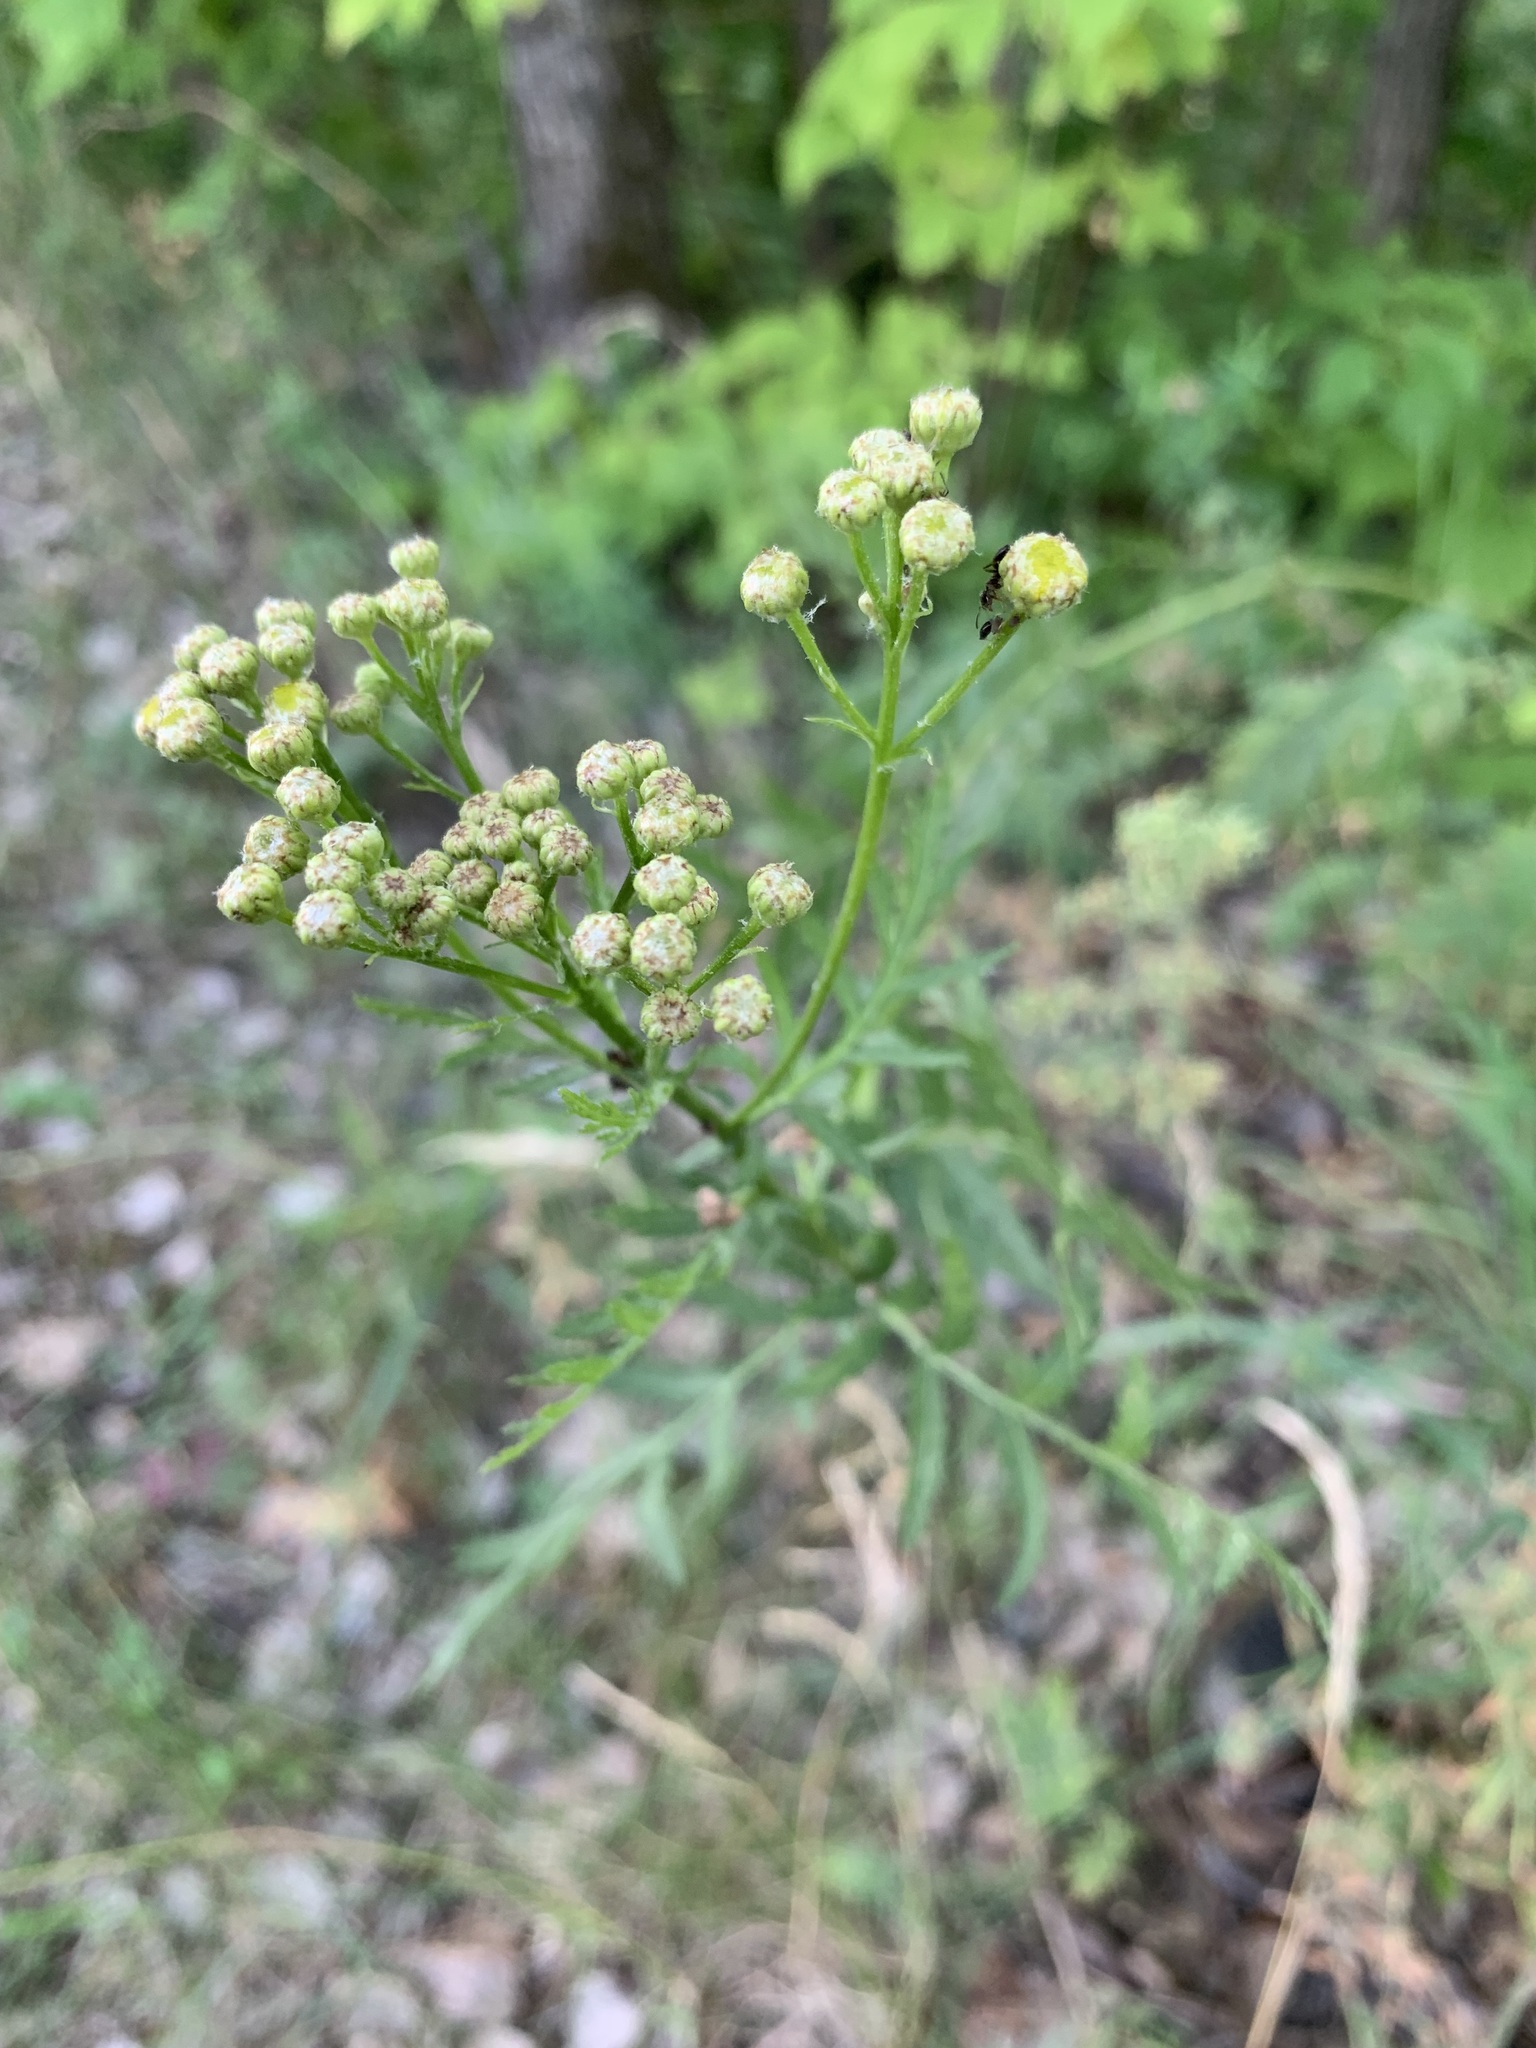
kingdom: Plantae
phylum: Tracheophyta
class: Magnoliopsida
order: Asterales
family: Asteraceae
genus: Tanacetum
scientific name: Tanacetum vulgare
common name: Common tansy
